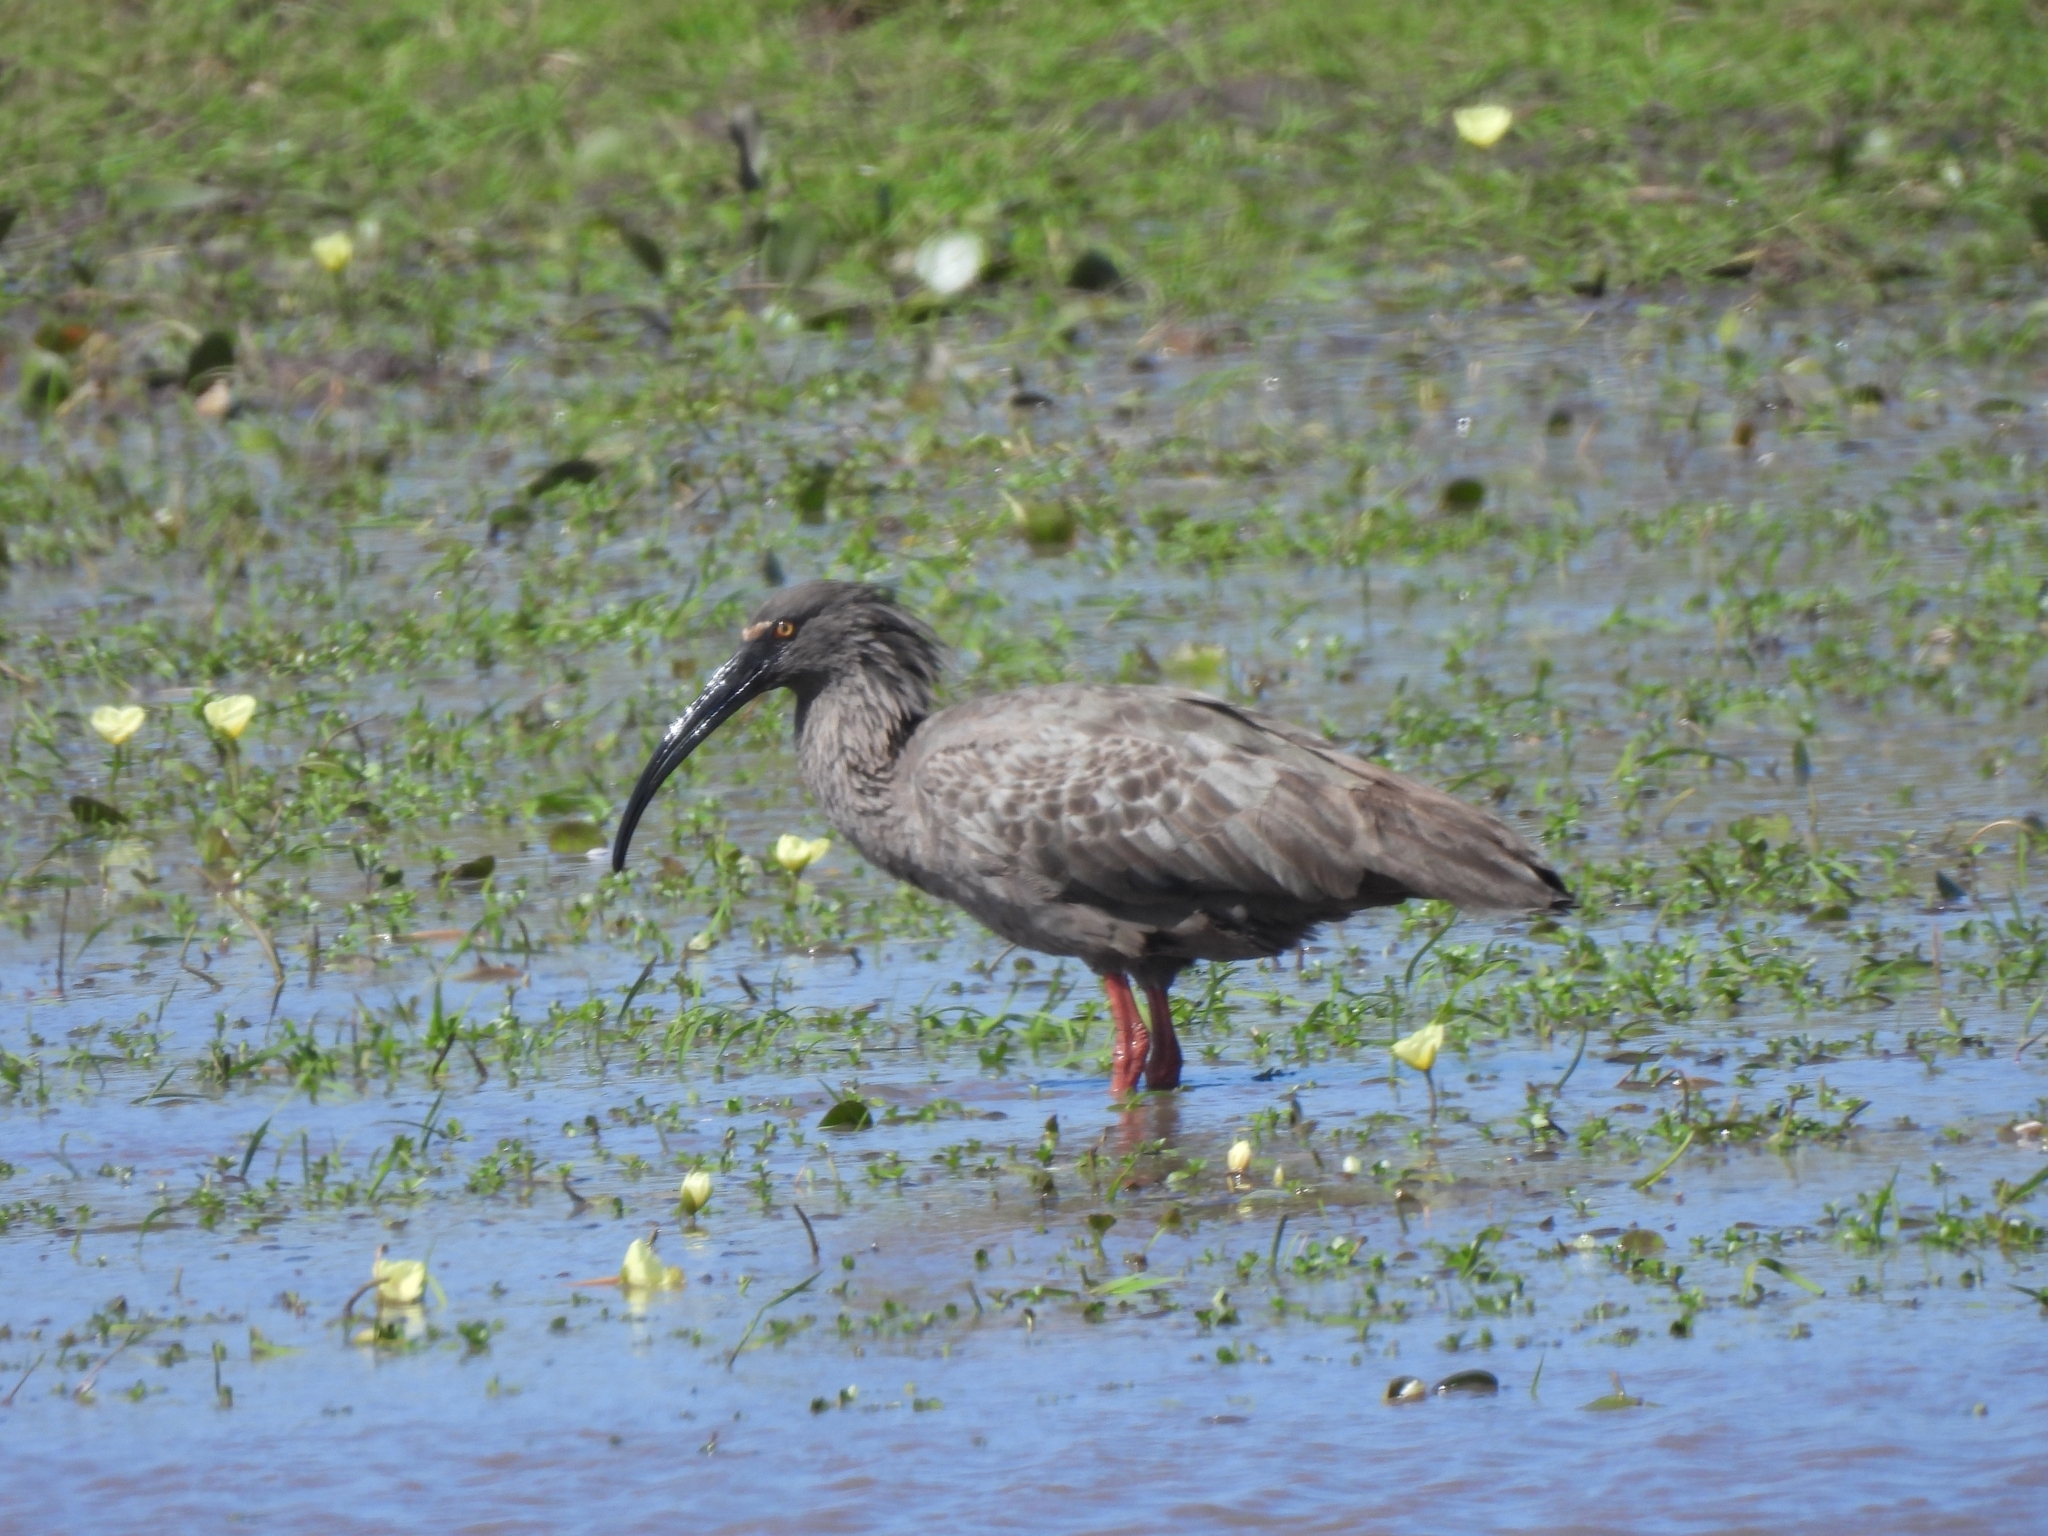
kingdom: Animalia
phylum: Chordata
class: Aves
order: Pelecaniformes
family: Threskiornithidae
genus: Theristicus
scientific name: Theristicus caerulescens
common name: Plumbeous ibis
